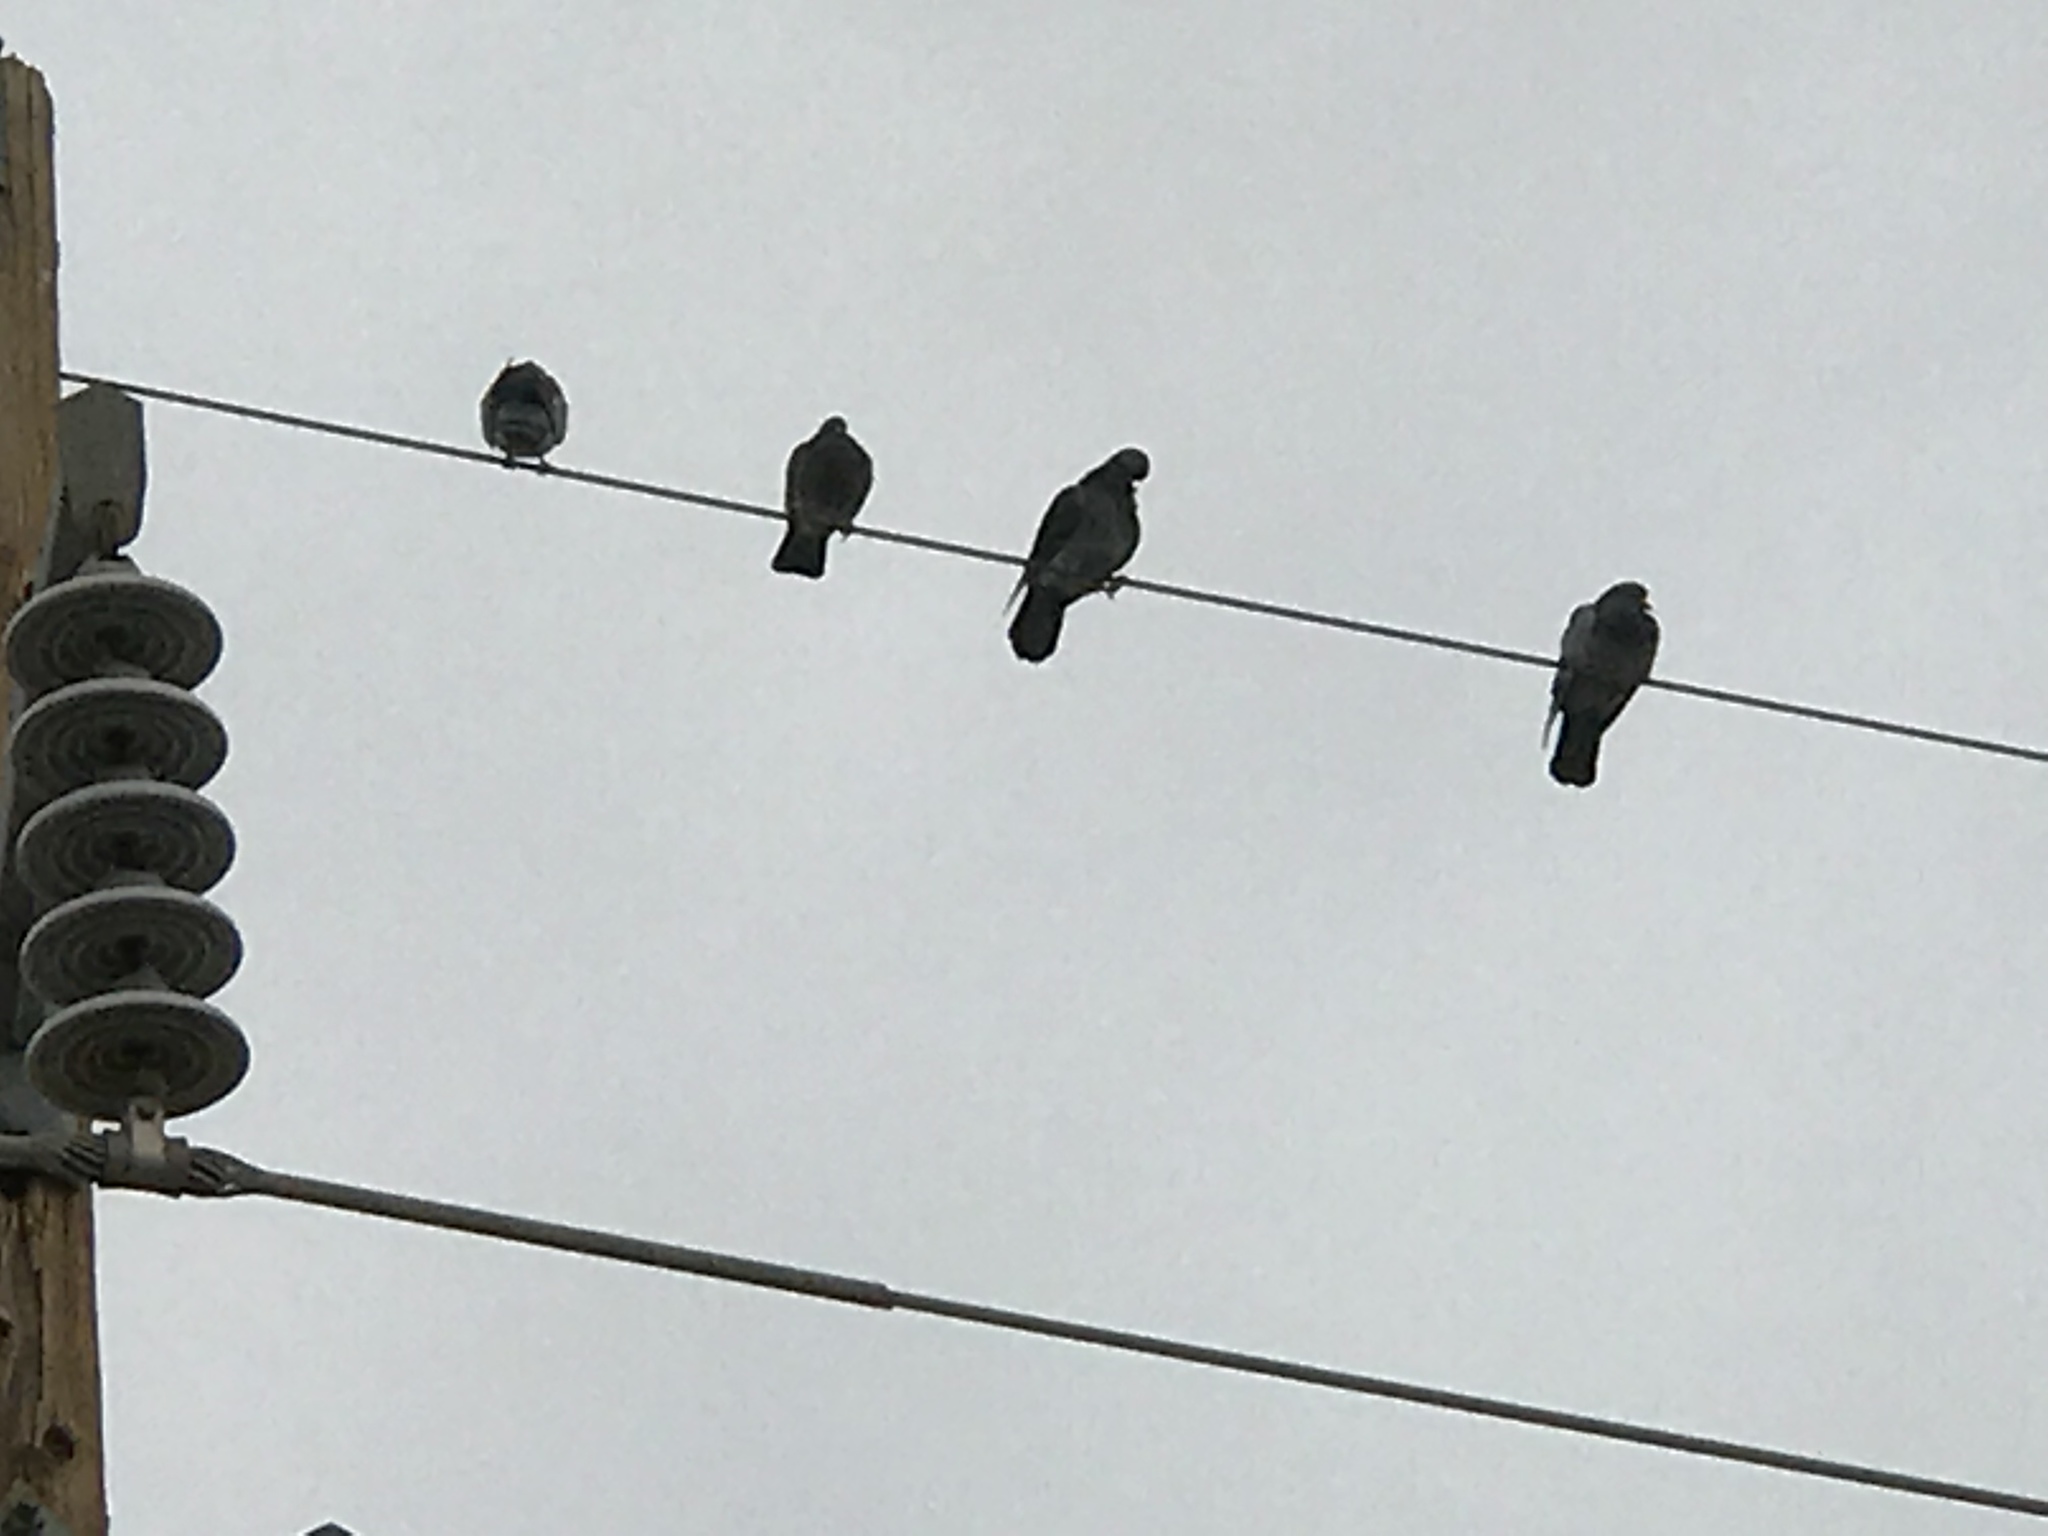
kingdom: Animalia
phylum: Chordata
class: Aves
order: Columbiformes
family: Columbidae
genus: Columba
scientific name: Columba livia
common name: Rock pigeon
